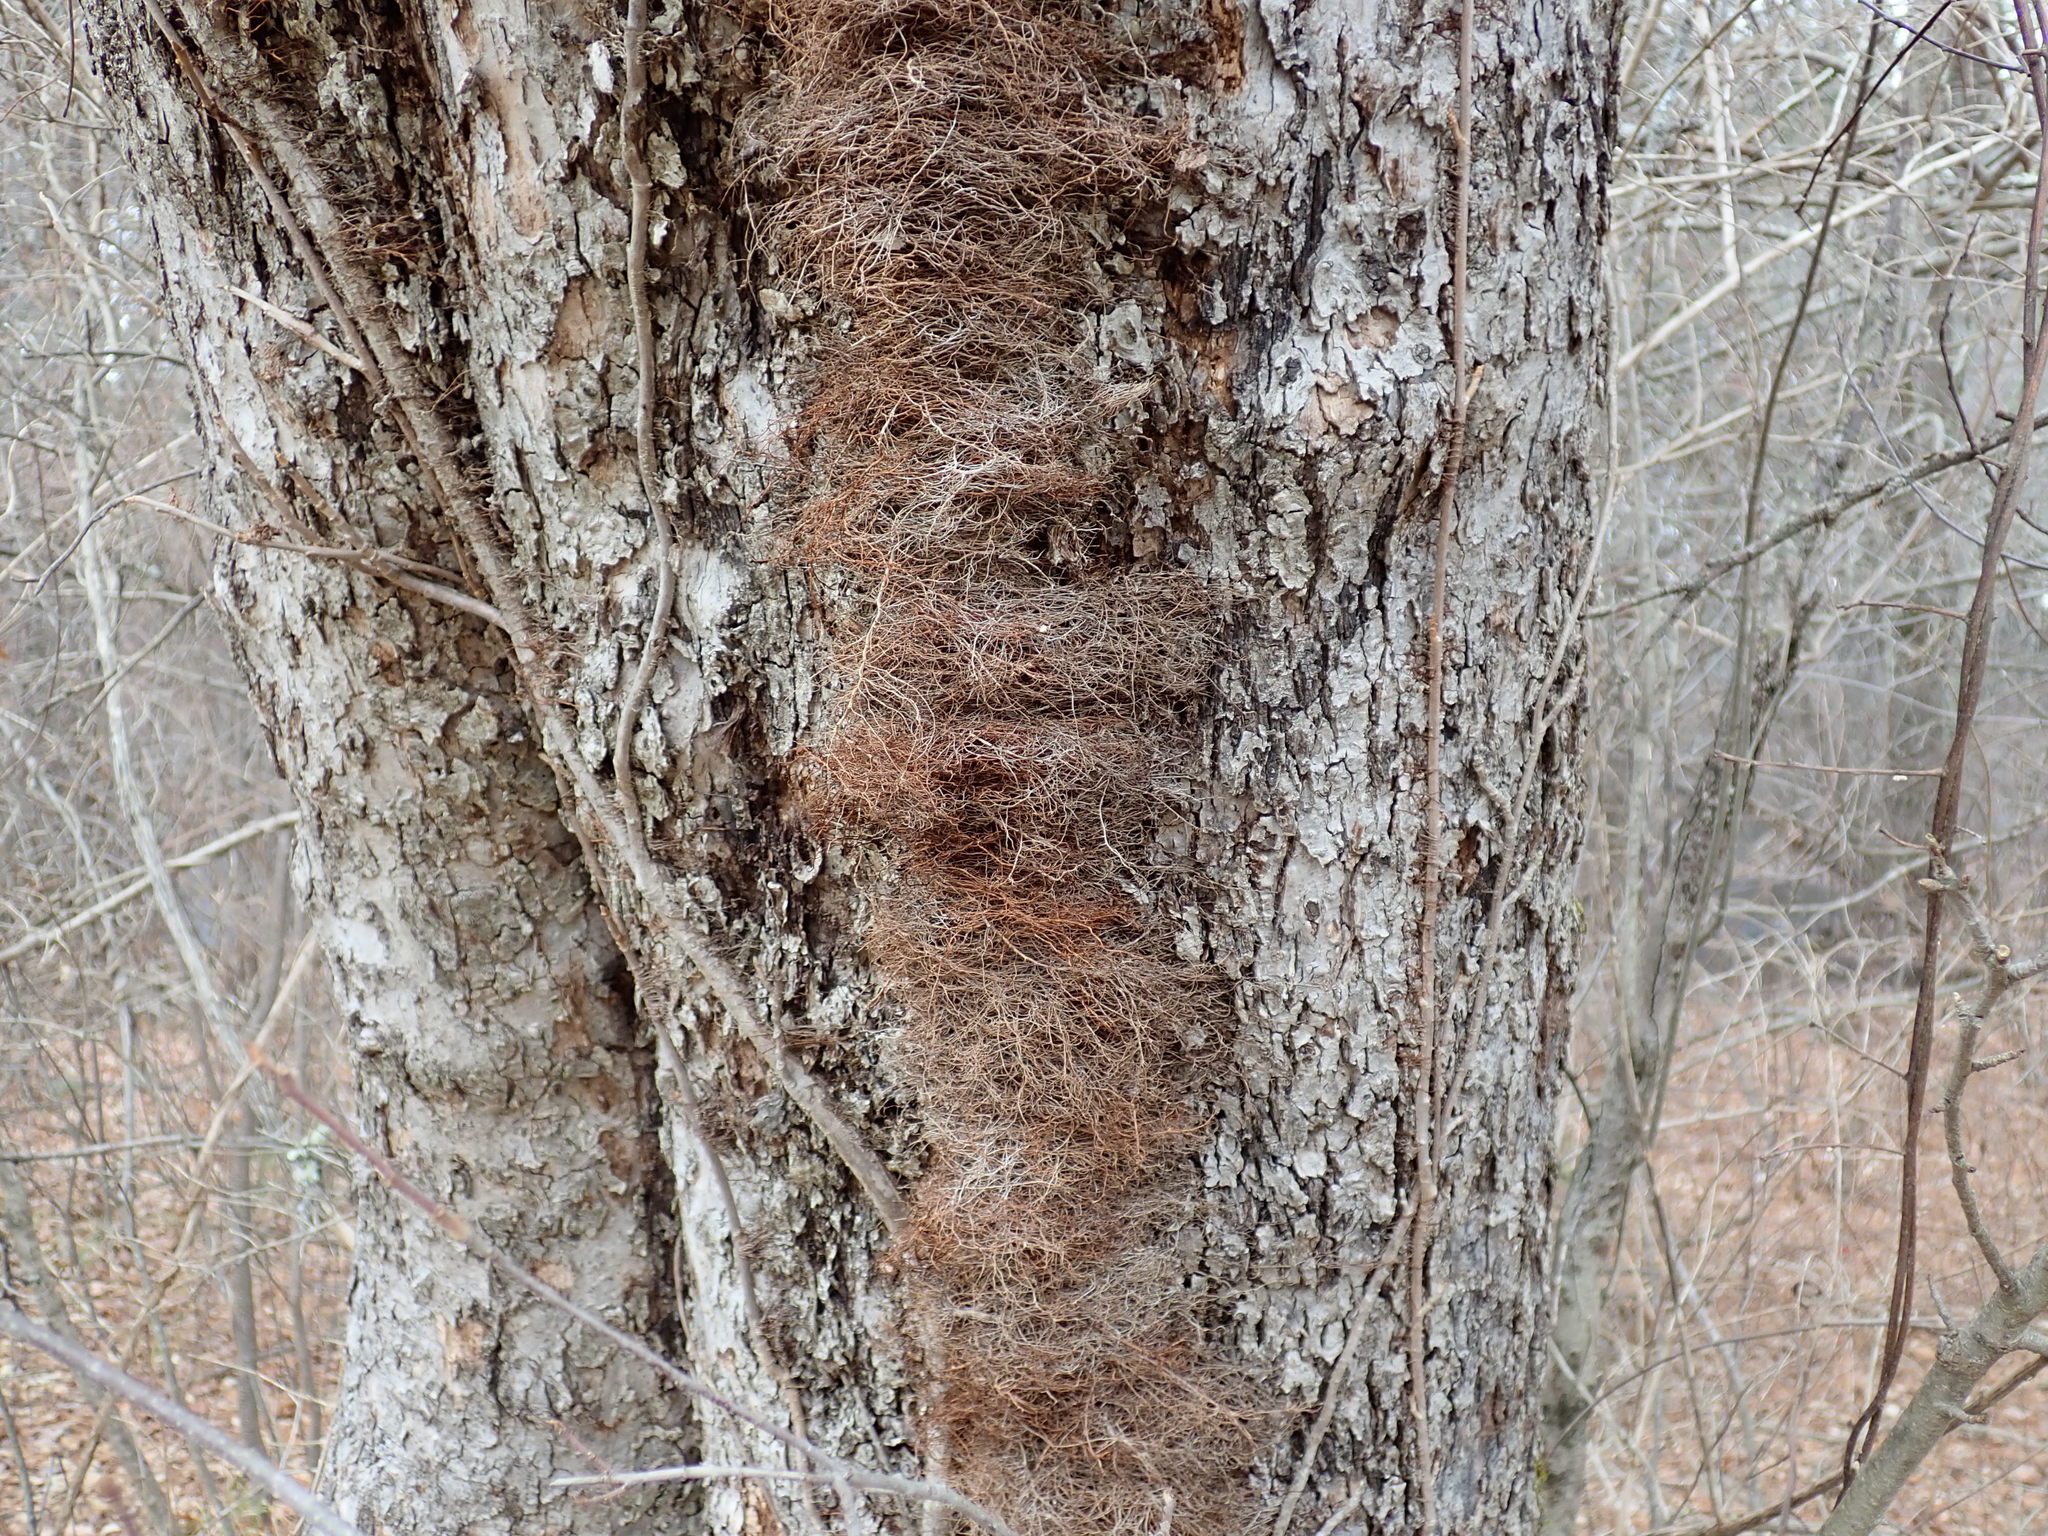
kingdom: Plantae
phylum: Tracheophyta
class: Magnoliopsida
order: Sapindales
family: Anacardiaceae
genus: Toxicodendron
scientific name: Toxicodendron radicans
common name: Poison ivy
